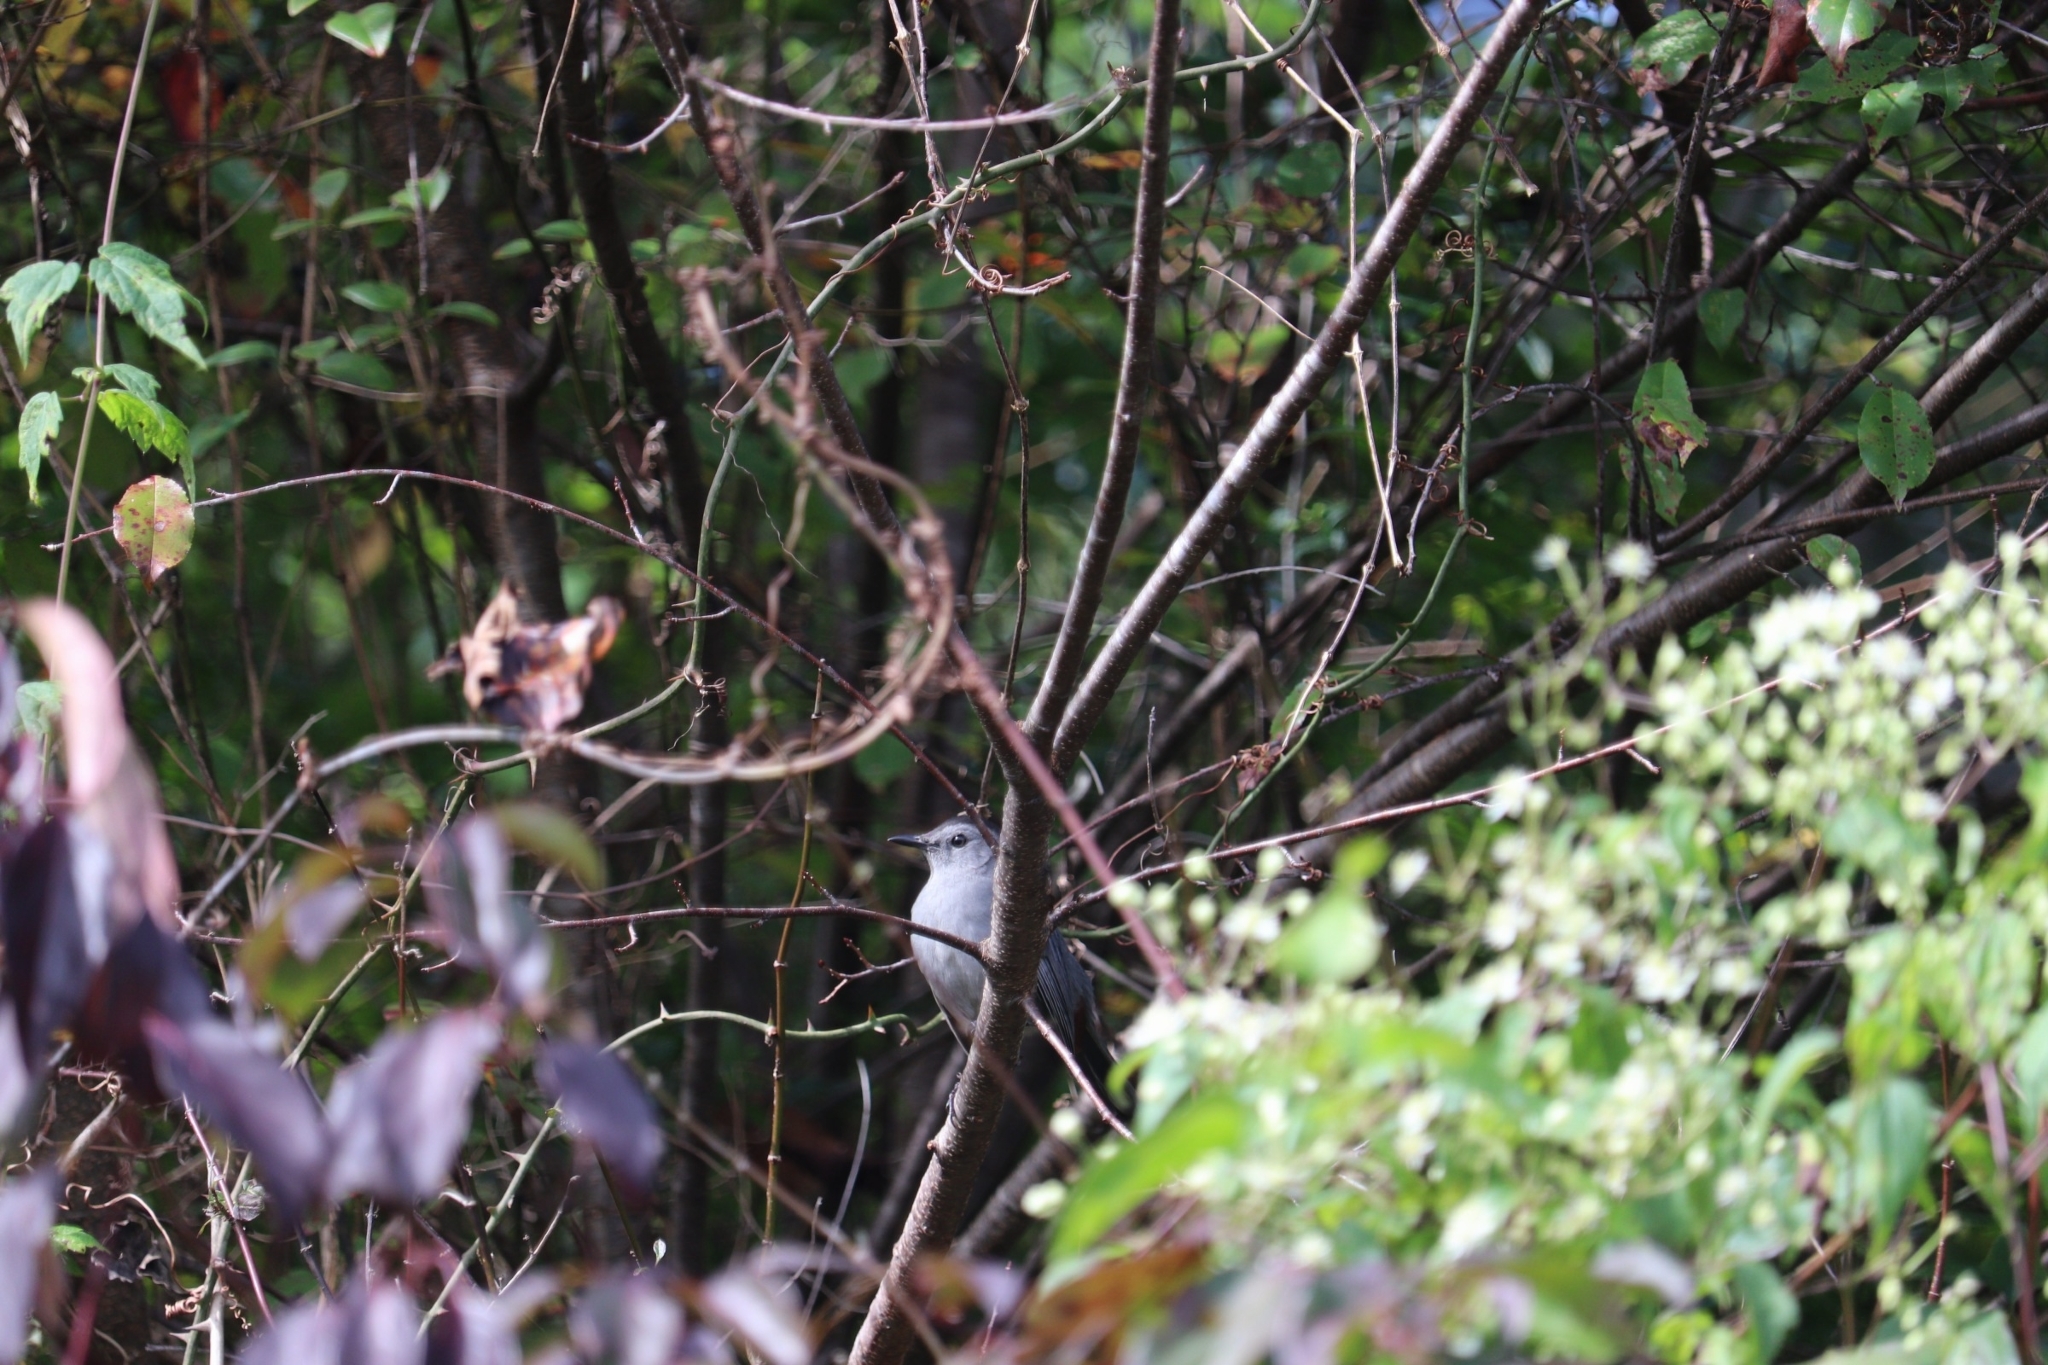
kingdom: Animalia
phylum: Chordata
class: Aves
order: Passeriformes
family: Mimidae
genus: Dumetella
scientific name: Dumetella carolinensis
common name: Gray catbird
